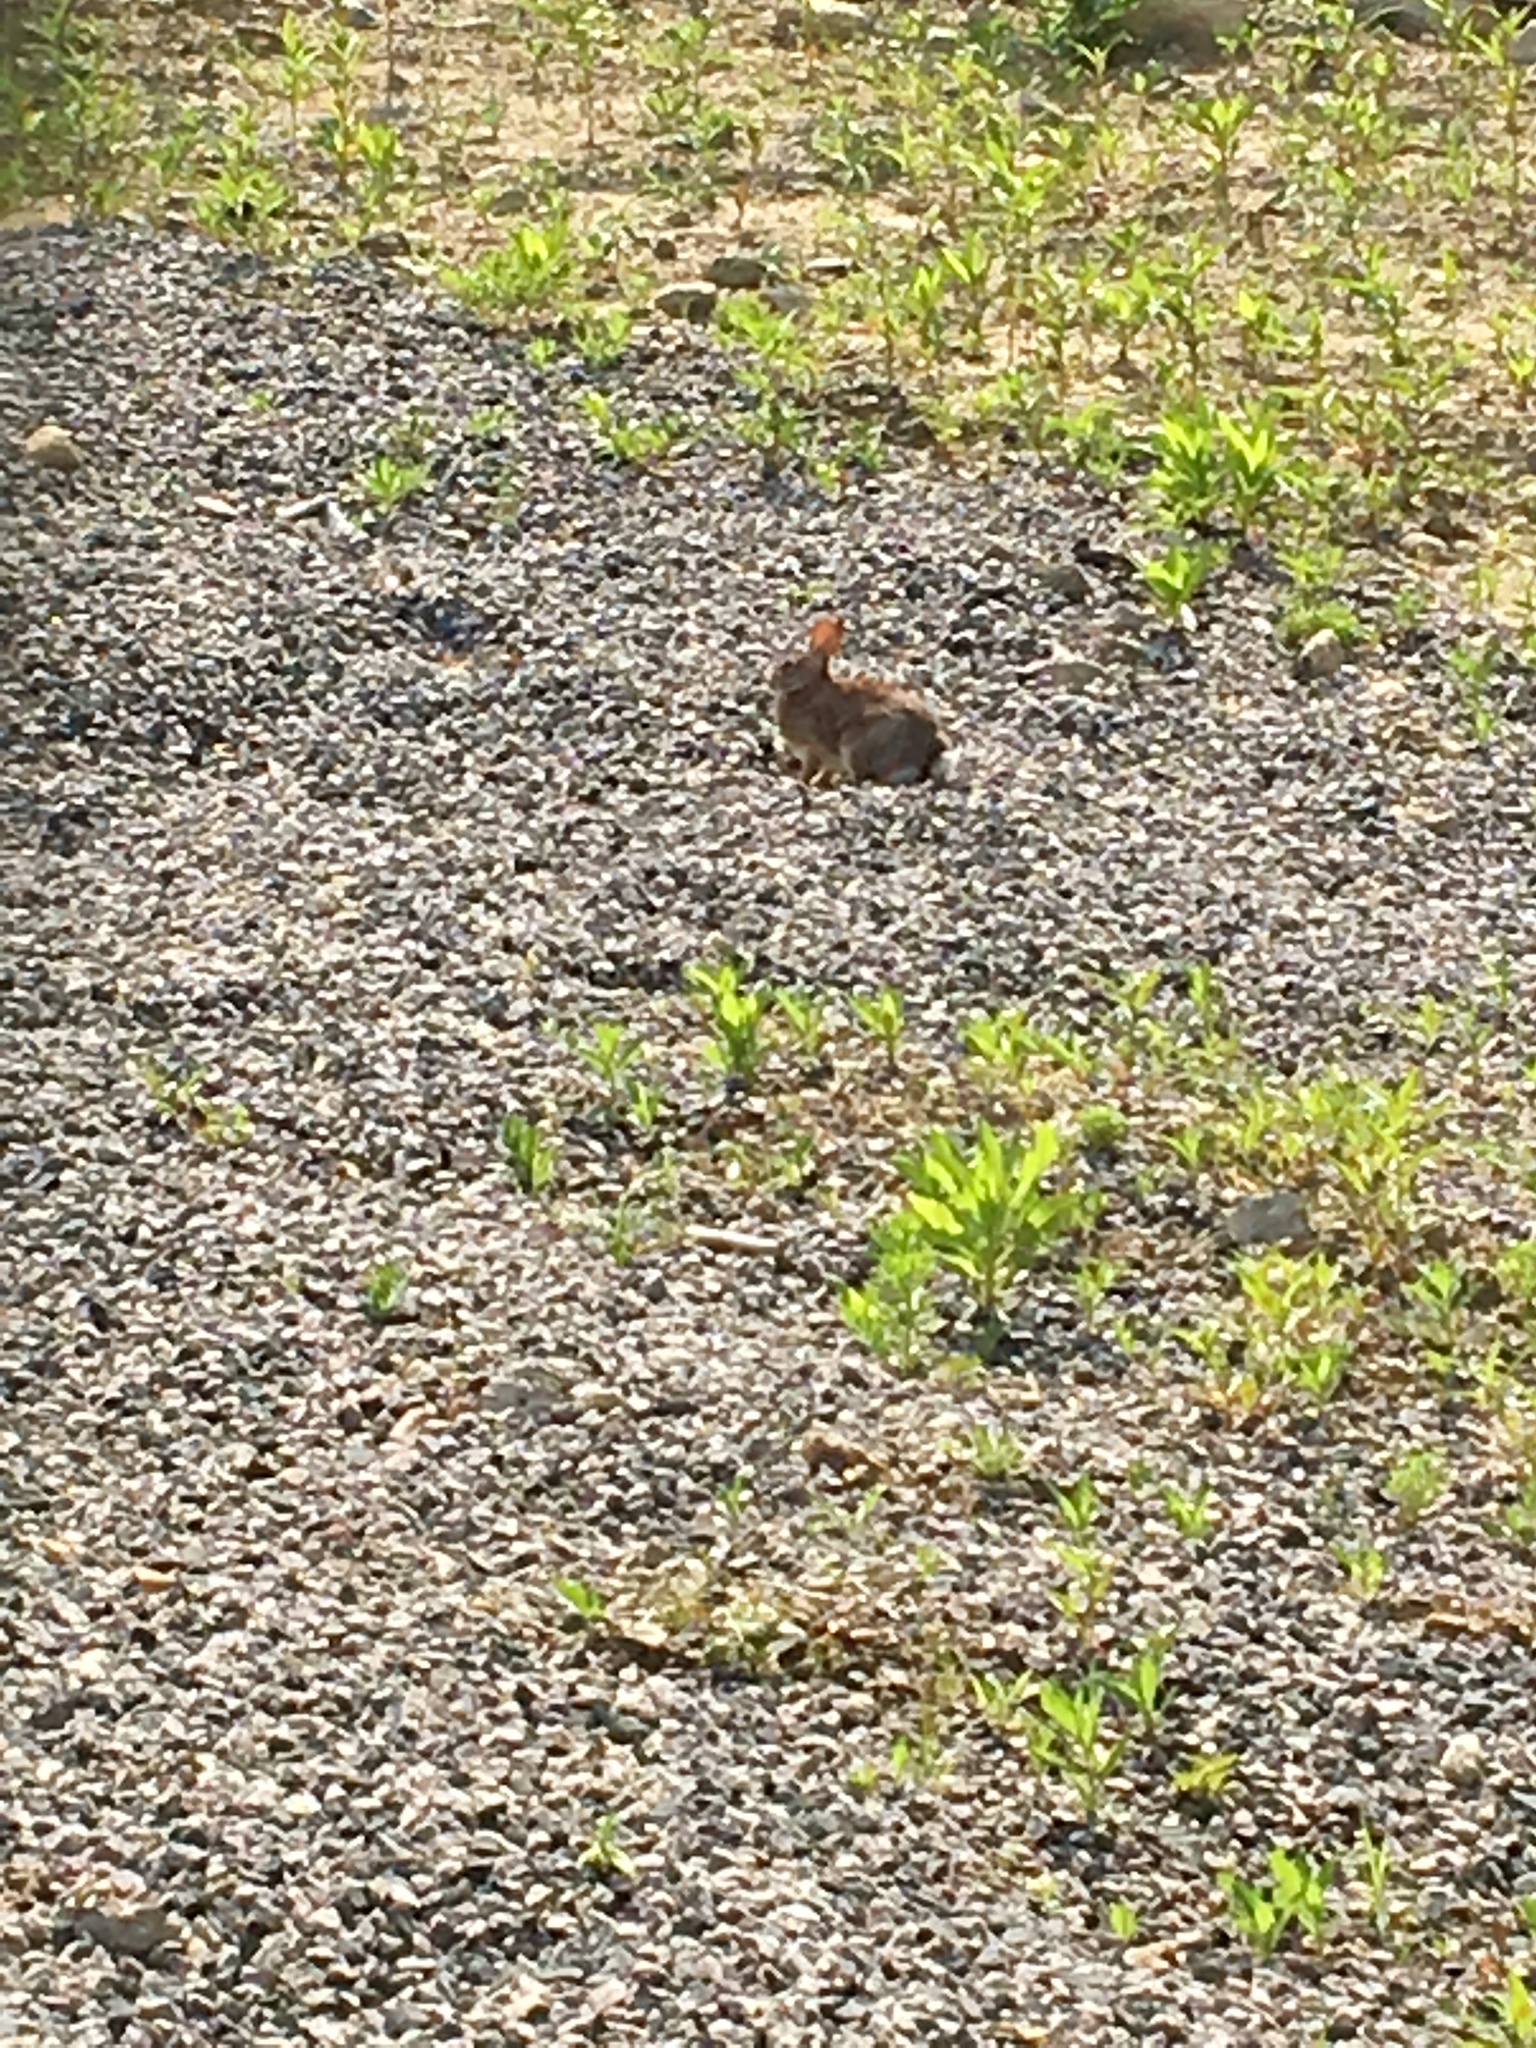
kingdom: Animalia
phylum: Chordata
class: Mammalia
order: Lagomorpha
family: Leporidae
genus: Sylvilagus
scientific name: Sylvilagus floridanus
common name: Eastern cottontail
